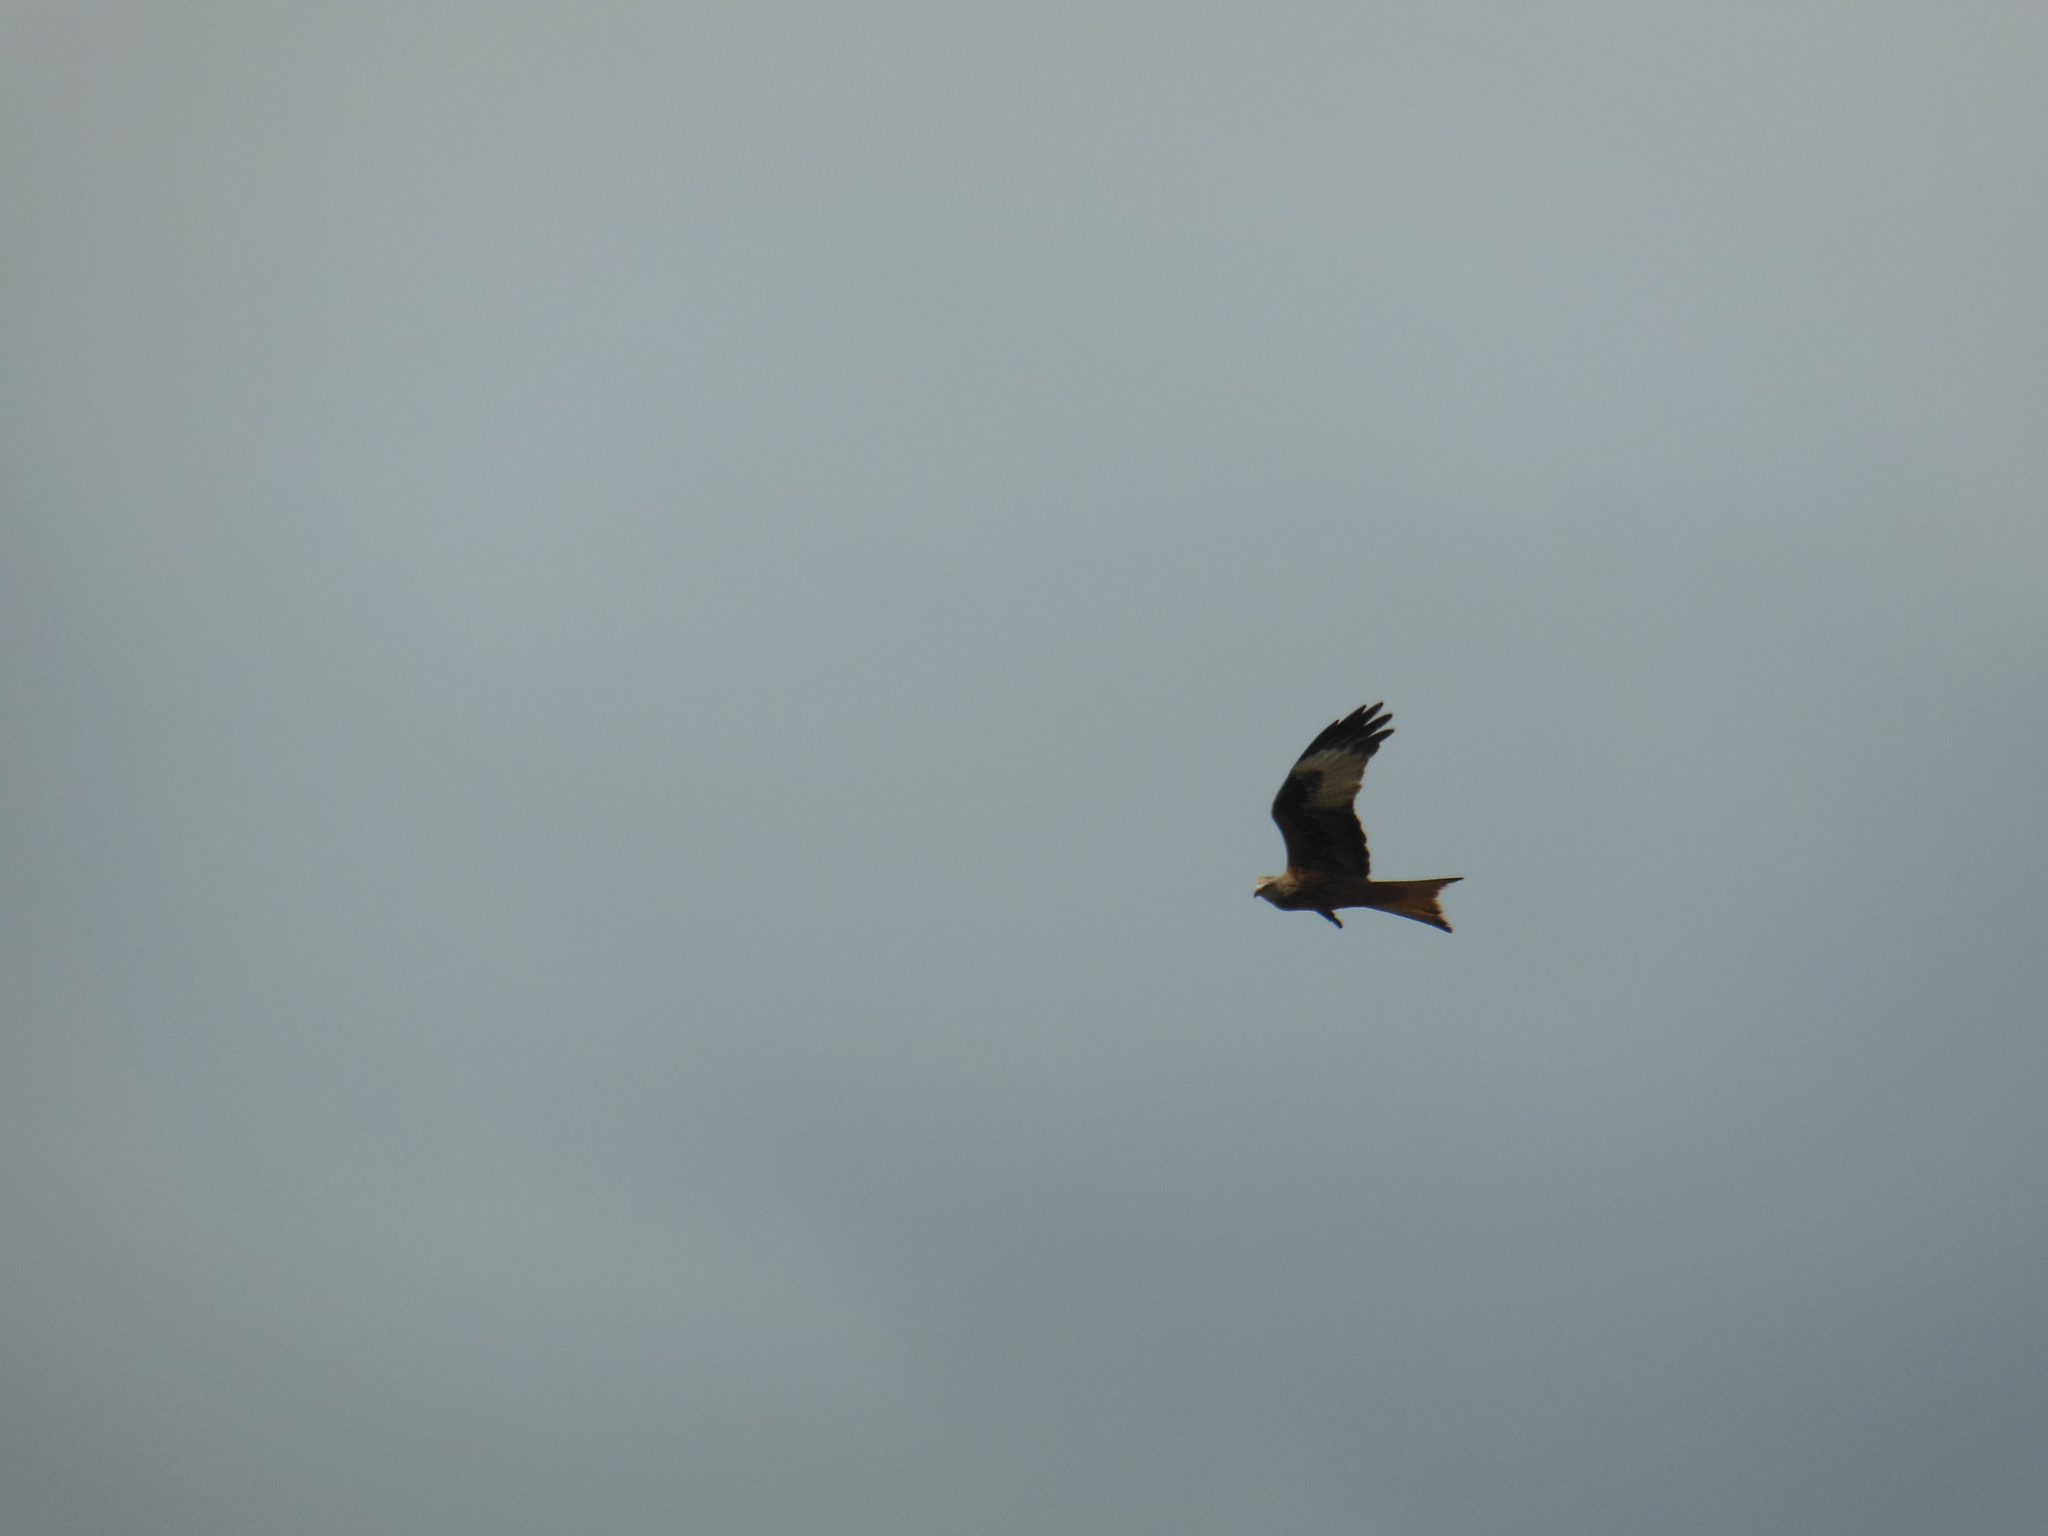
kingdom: Animalia
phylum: Chordata
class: Aves
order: Accipitriformes
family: Accipitridae
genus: Milvus
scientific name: Milvus milvus
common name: Red kite
